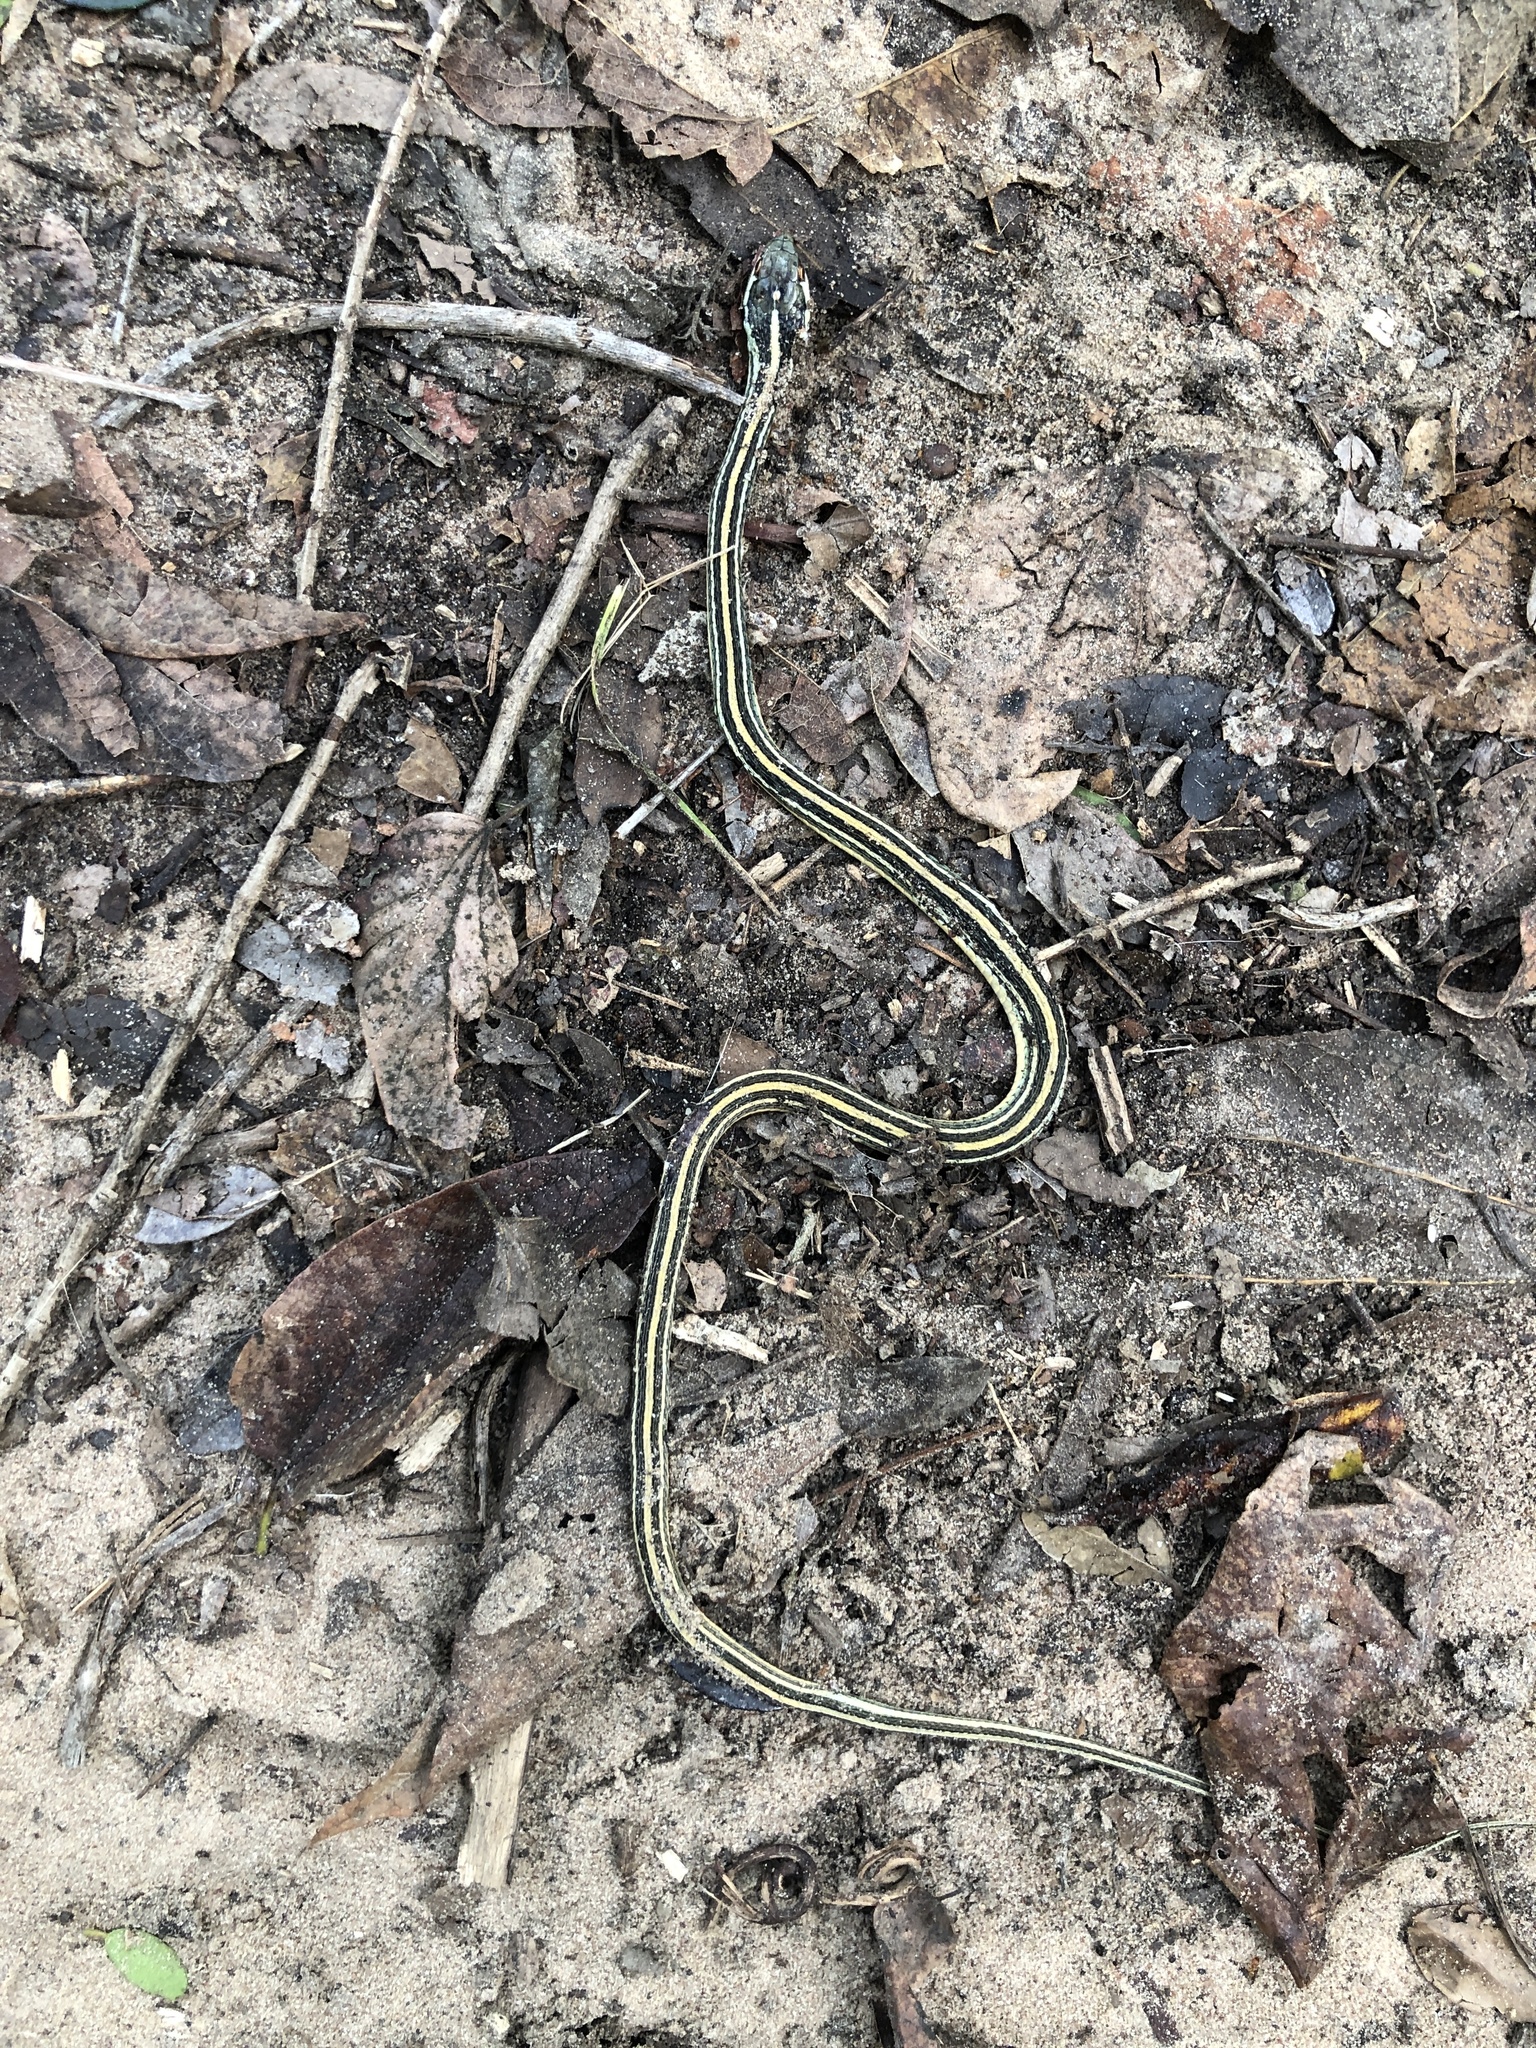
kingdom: Animalia
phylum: Chordata
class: Squamata
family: Colubridae
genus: Thamnophis
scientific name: Thamnophis proximus
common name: Western ribbon snake
